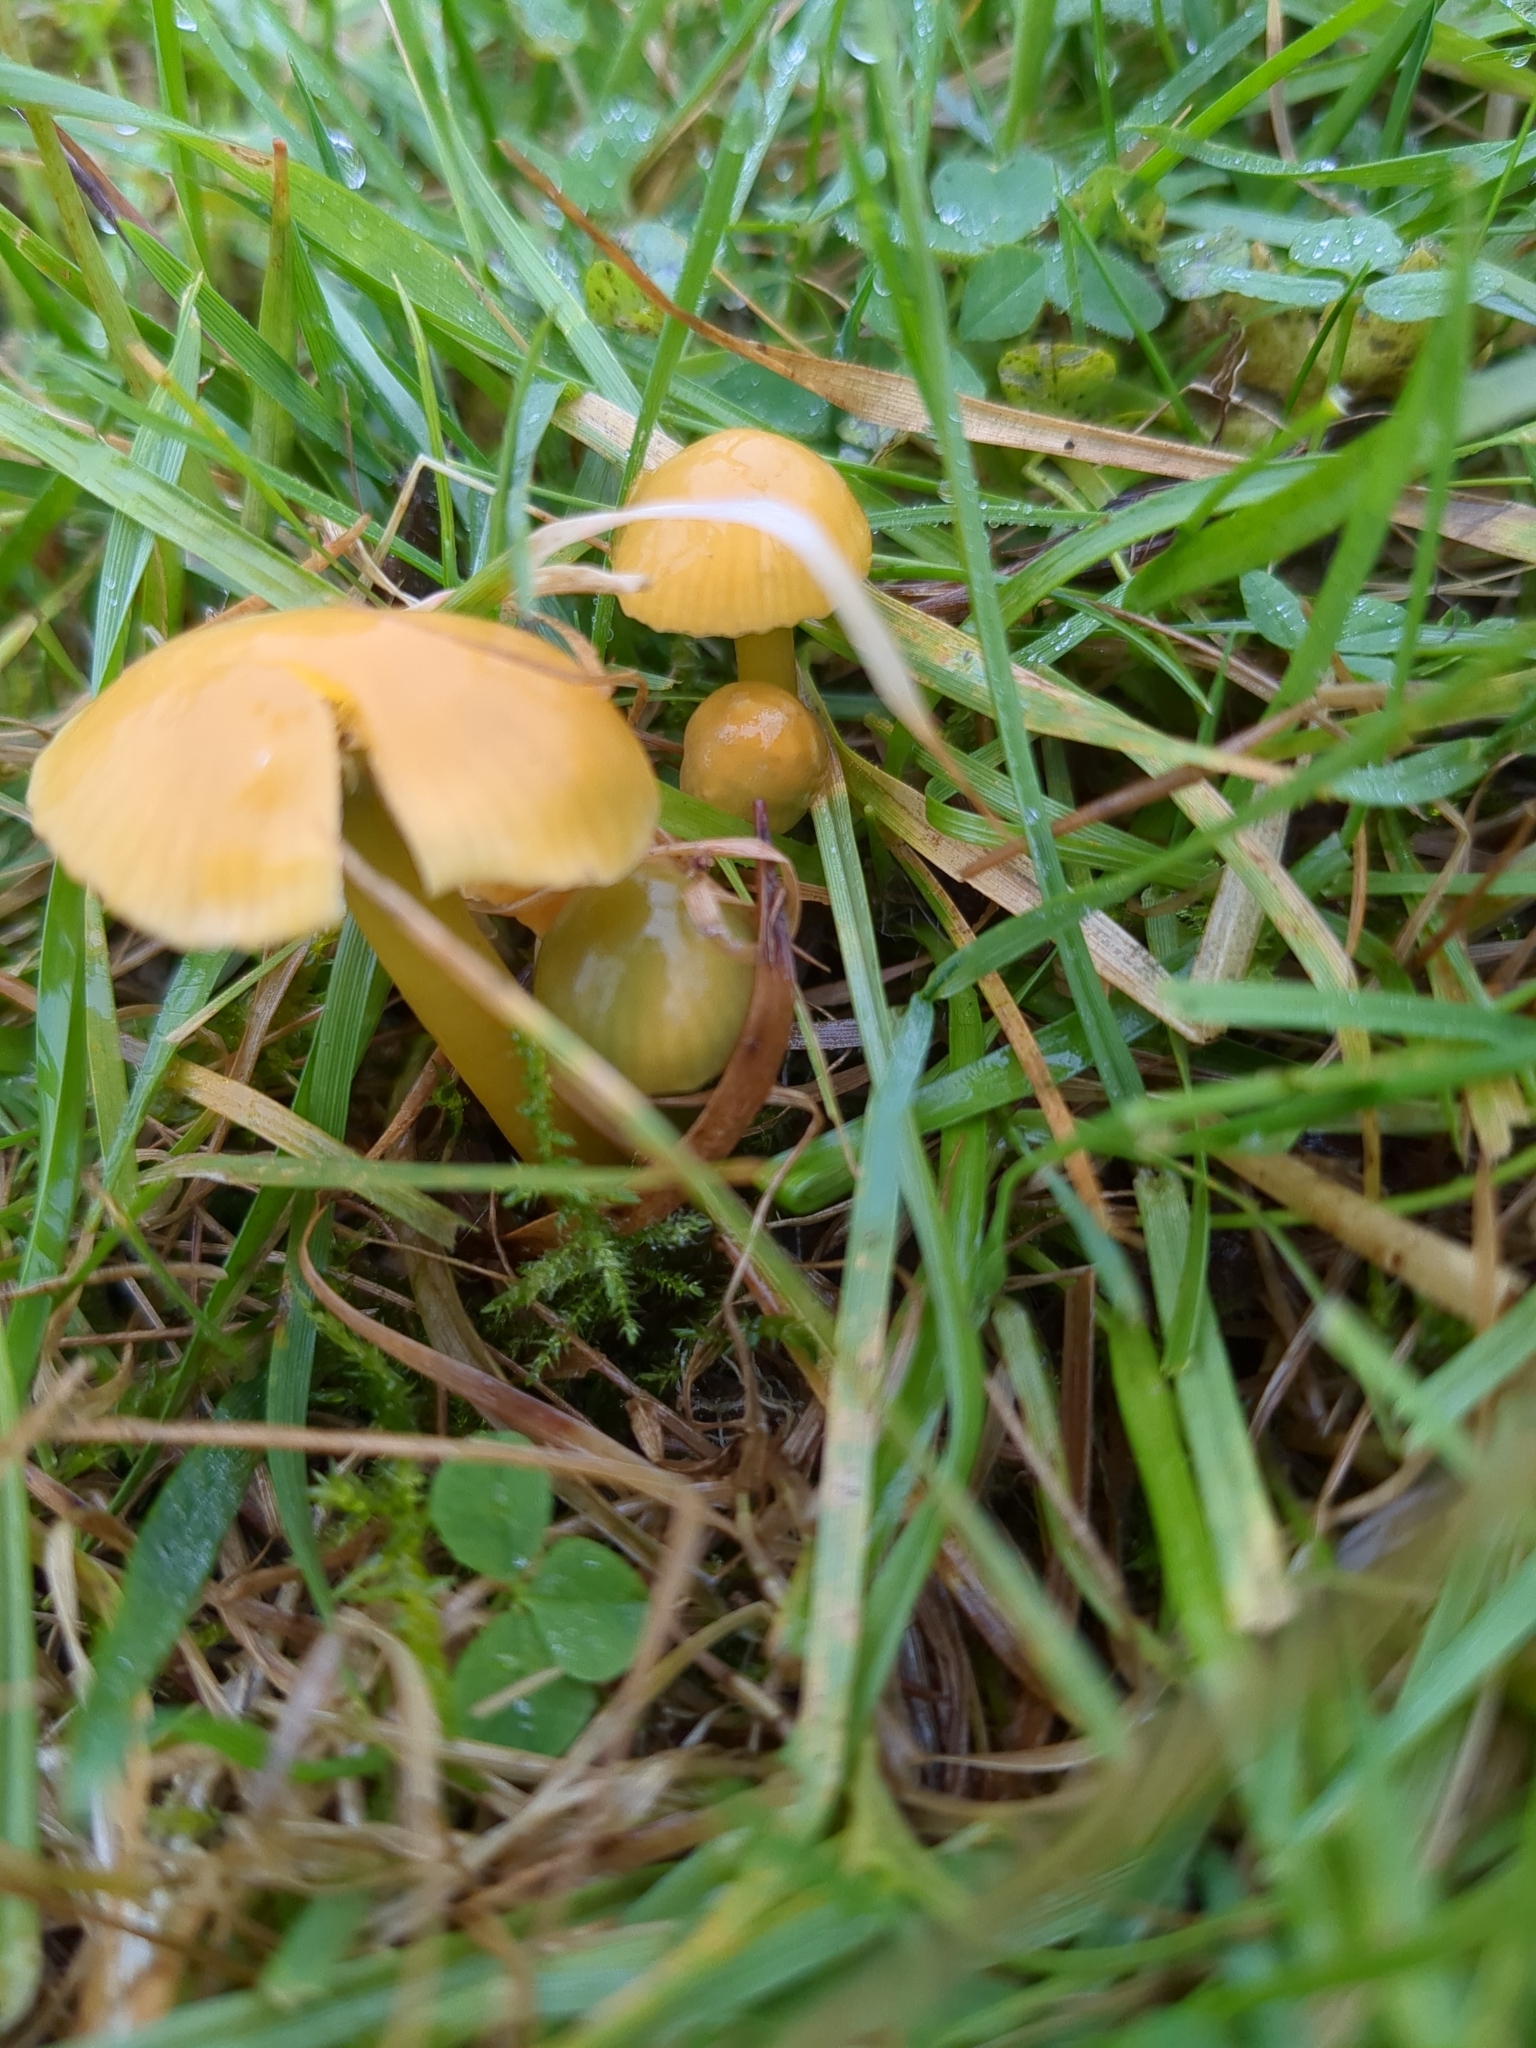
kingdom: Fungi
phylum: Basidiomycota
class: Agaricomycetes
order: Agaricales
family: Hygrophoraceae
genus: Gliophorus
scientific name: Gliophorus psittacinus
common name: Parrot wax-cap
